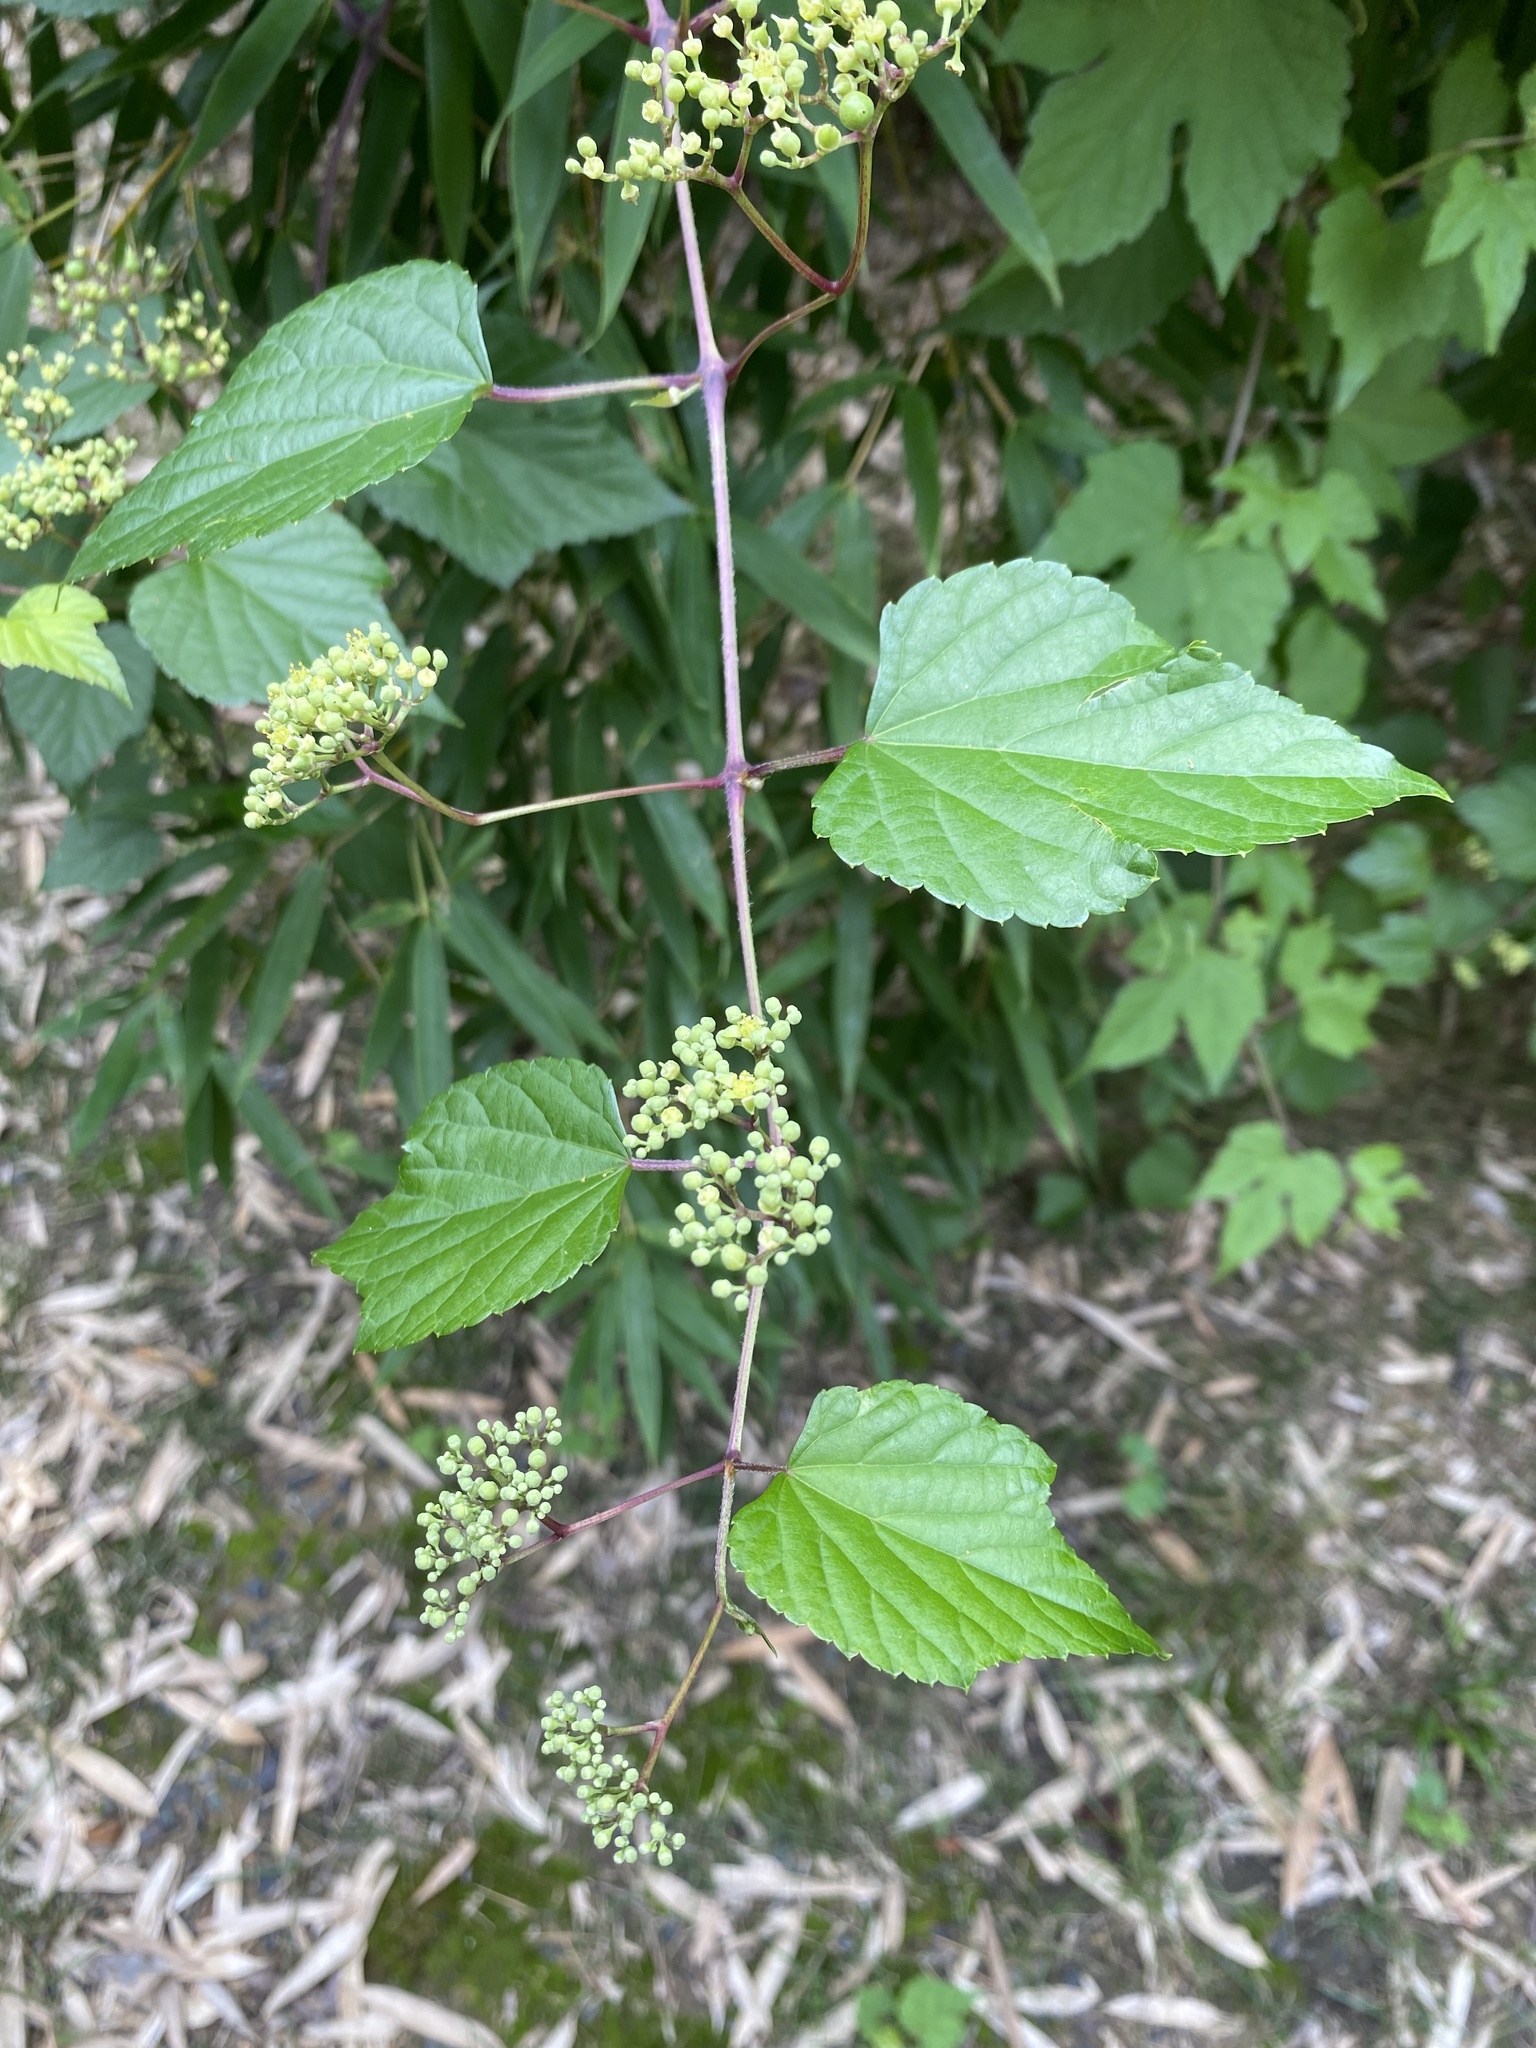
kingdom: Plantae
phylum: Tracheophyta
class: Magnoliopsida
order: Vitales
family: Vitaceae
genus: Ampelopsis
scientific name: Ampelopsis glandulosa
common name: Amur peppervine
